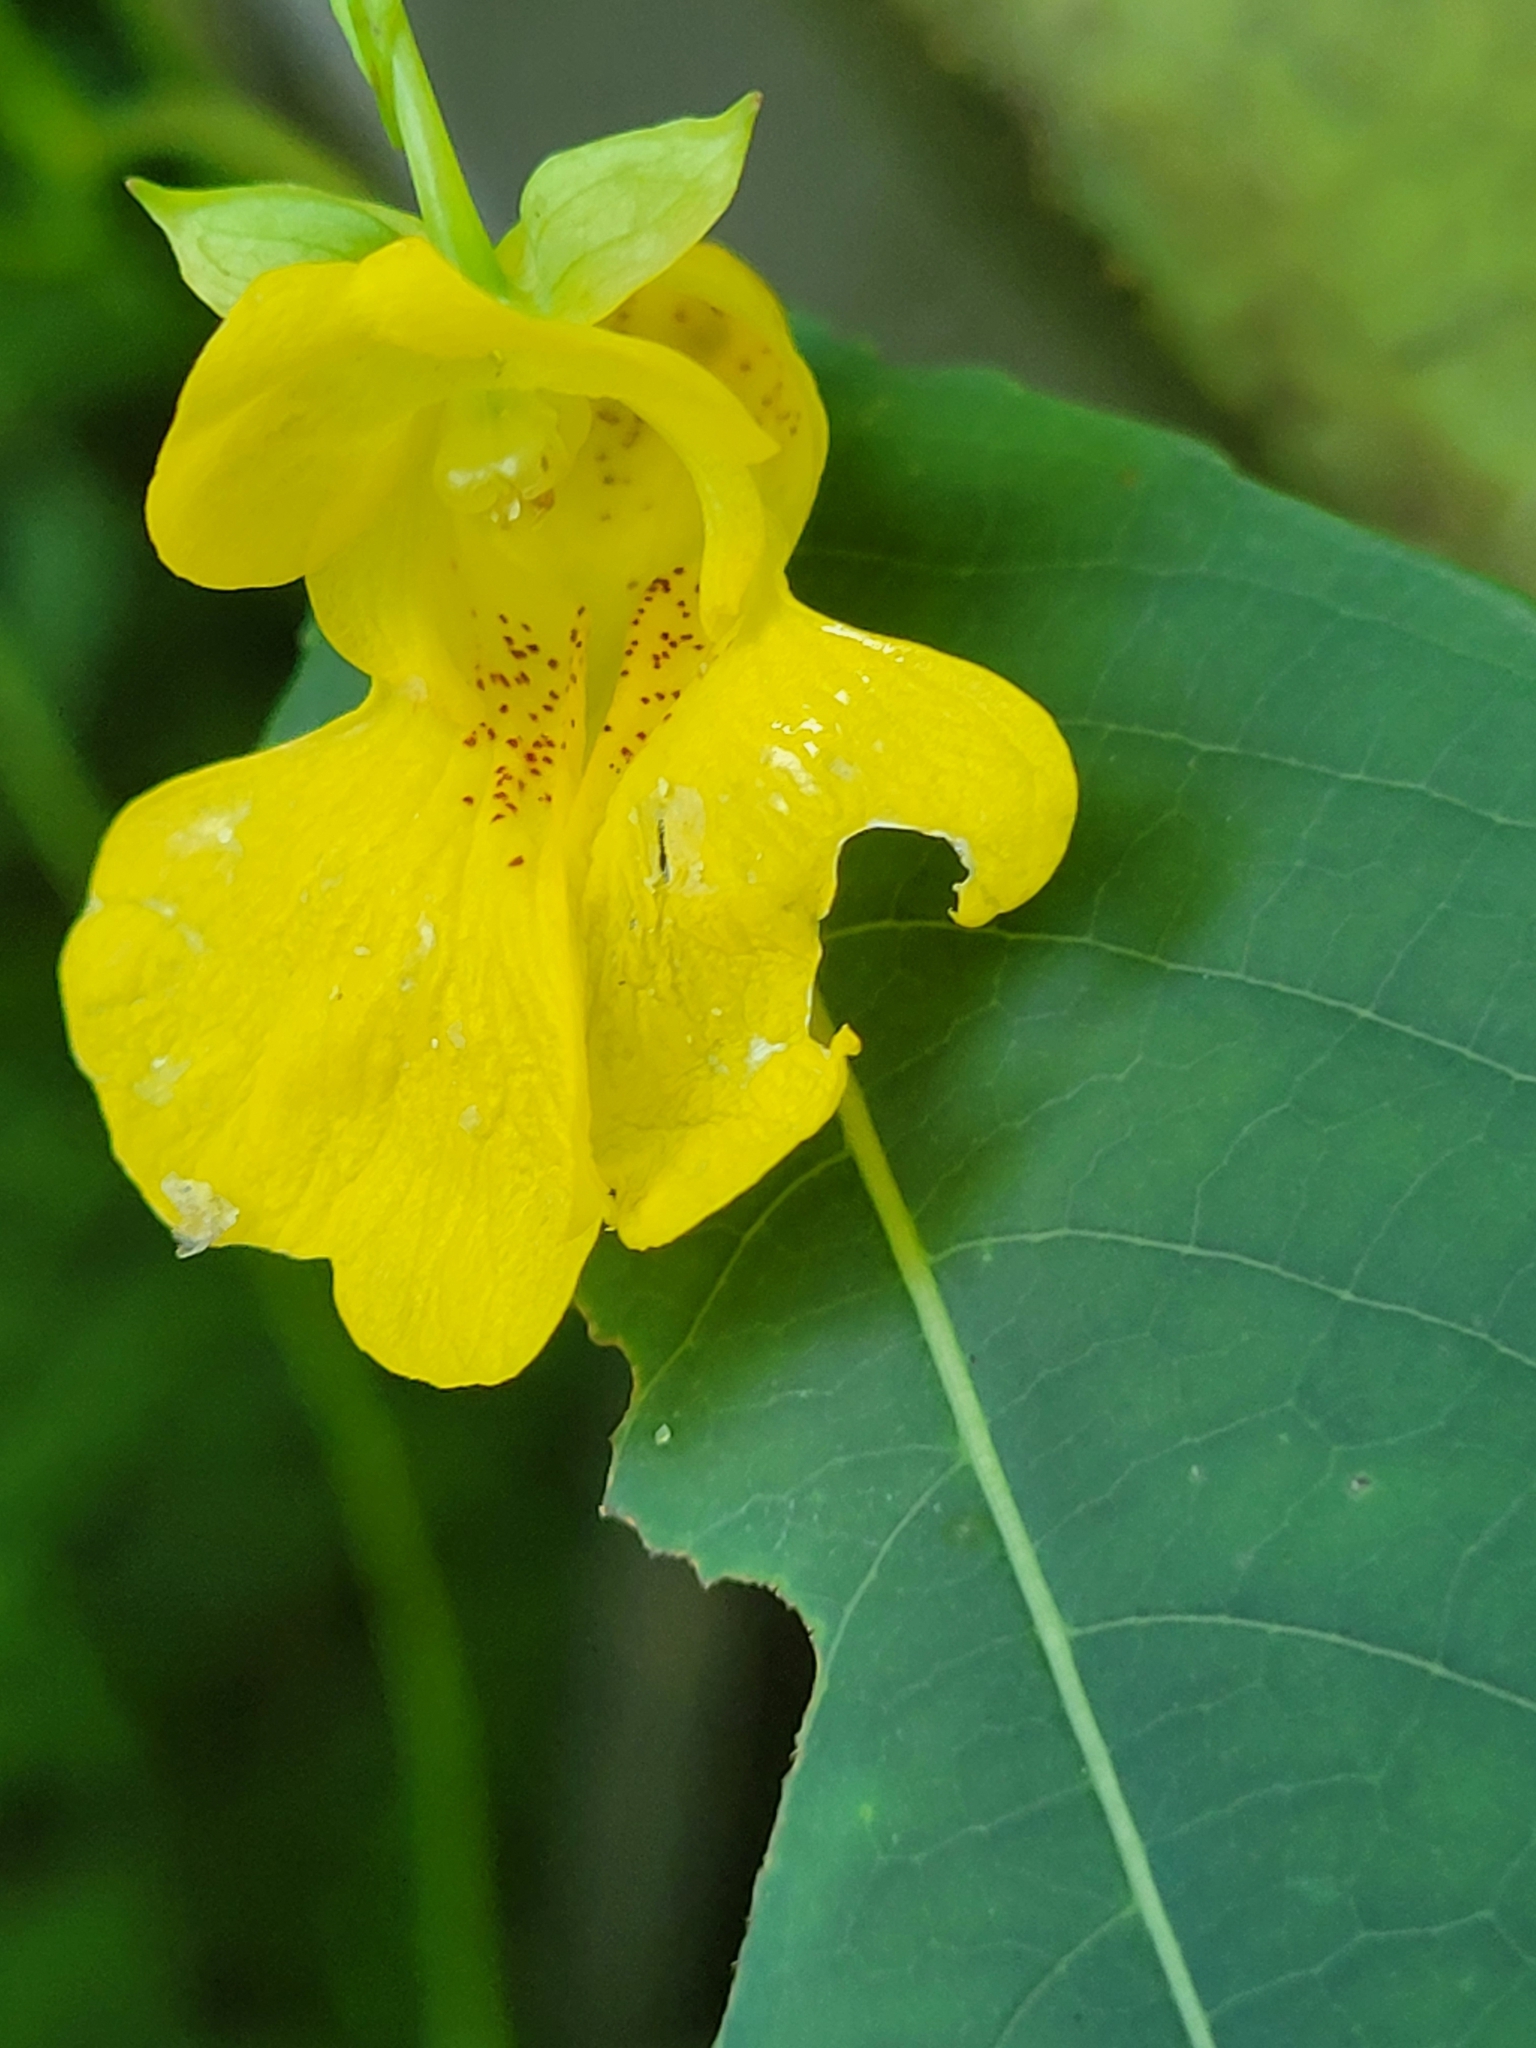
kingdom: Plantae
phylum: Tracheophyta
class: Magnoliopsida
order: Ericales
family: Balsaminaceae
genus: Impatiens
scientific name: Impatiens pallida
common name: Pale snapweed
